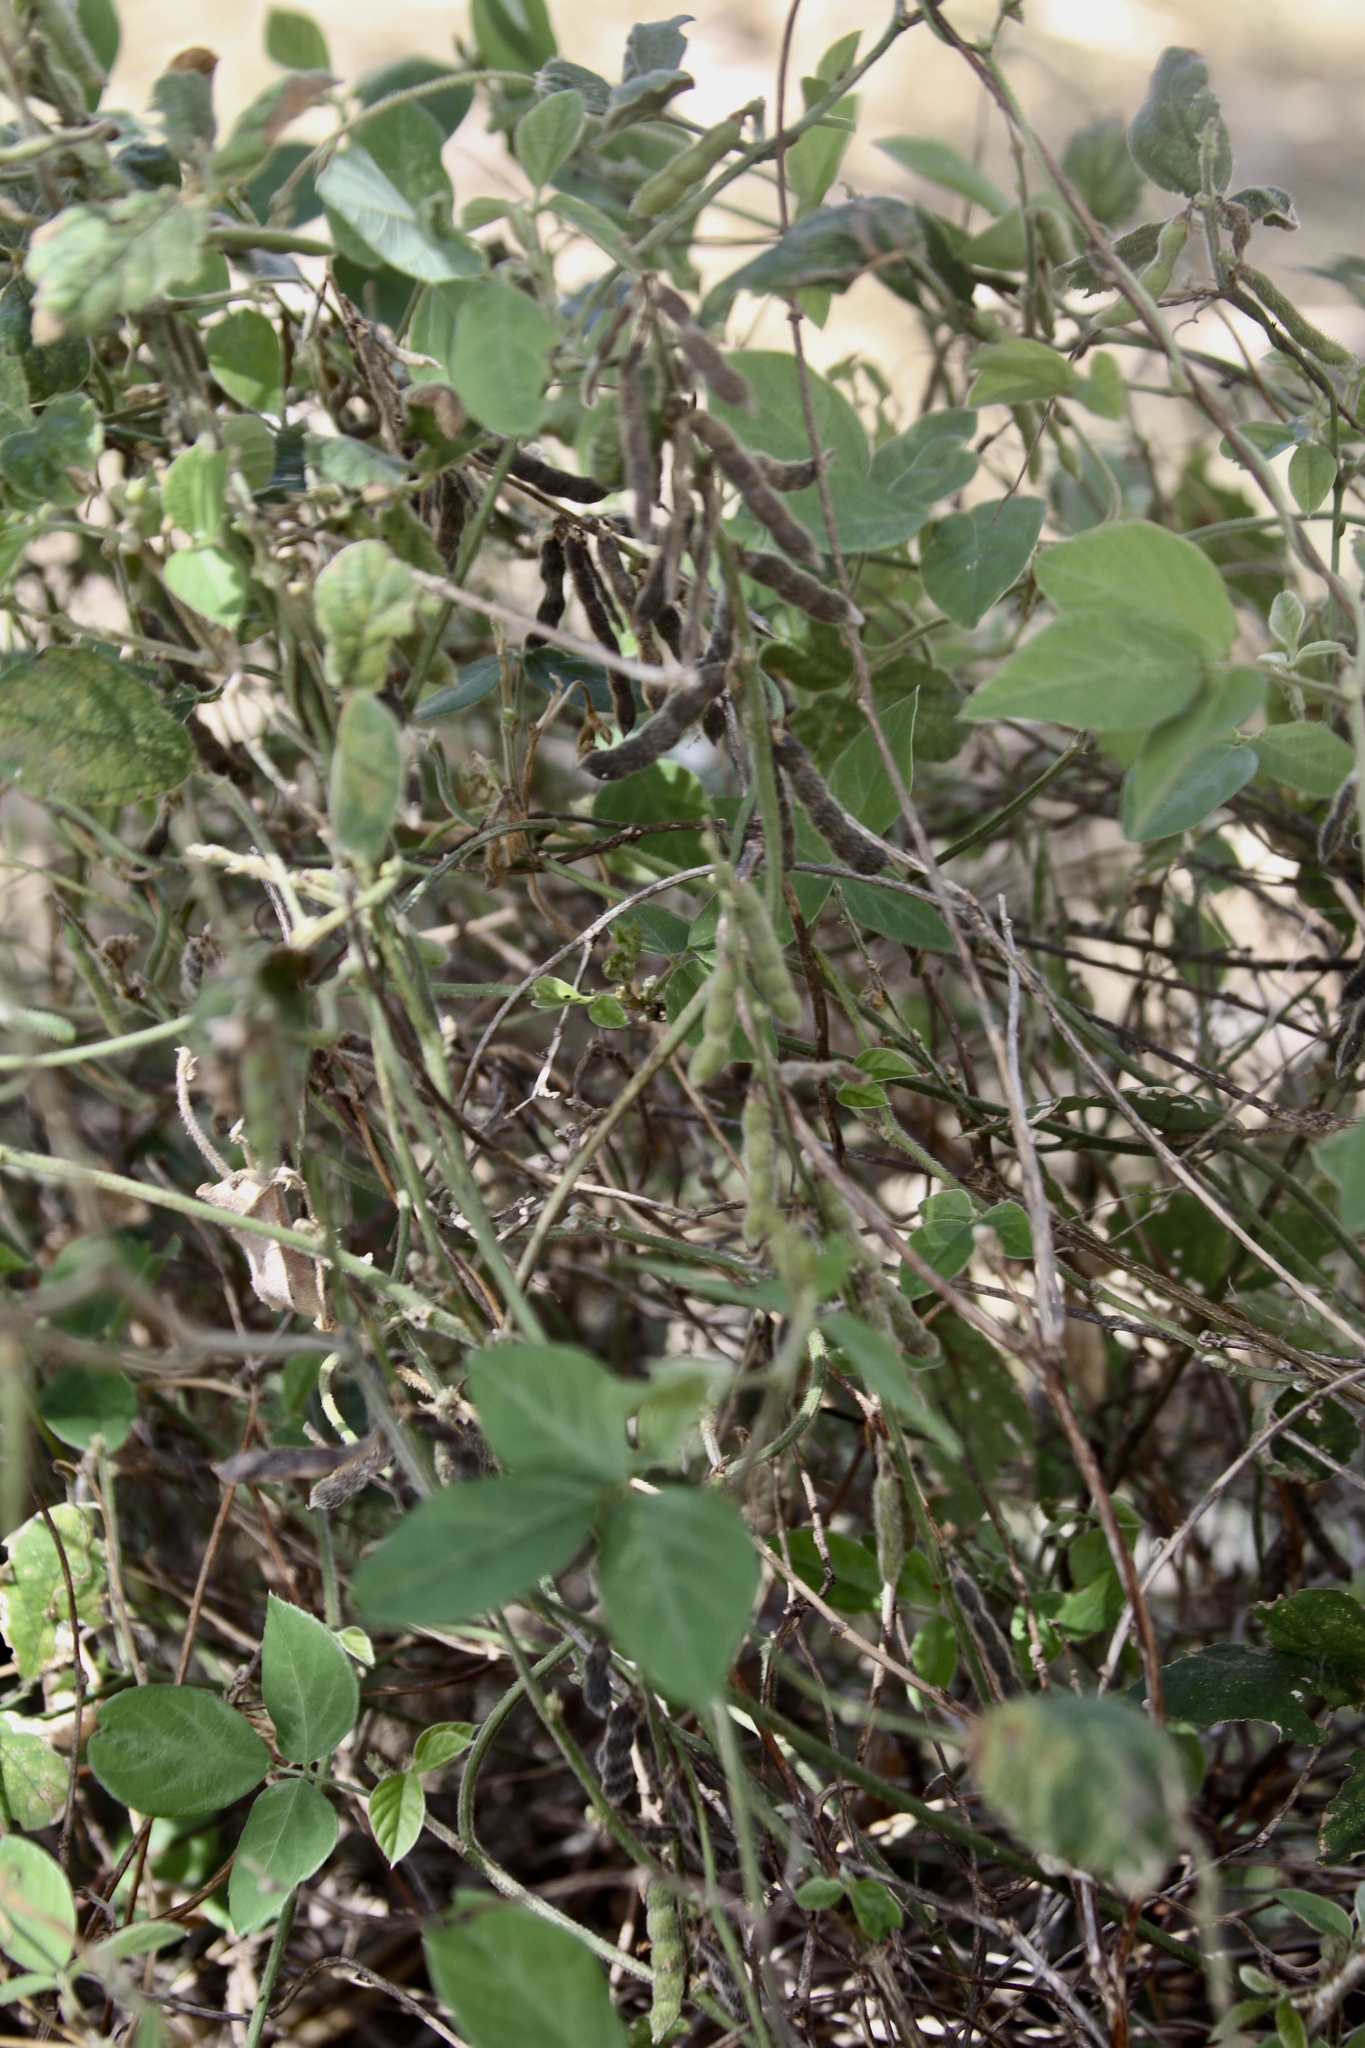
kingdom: Plantae
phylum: Tracheophyta
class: Magnoliopsida
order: Fabales
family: Fabaceae
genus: Neonotonia
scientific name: Neonotonia wightii
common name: Perennial soybean
